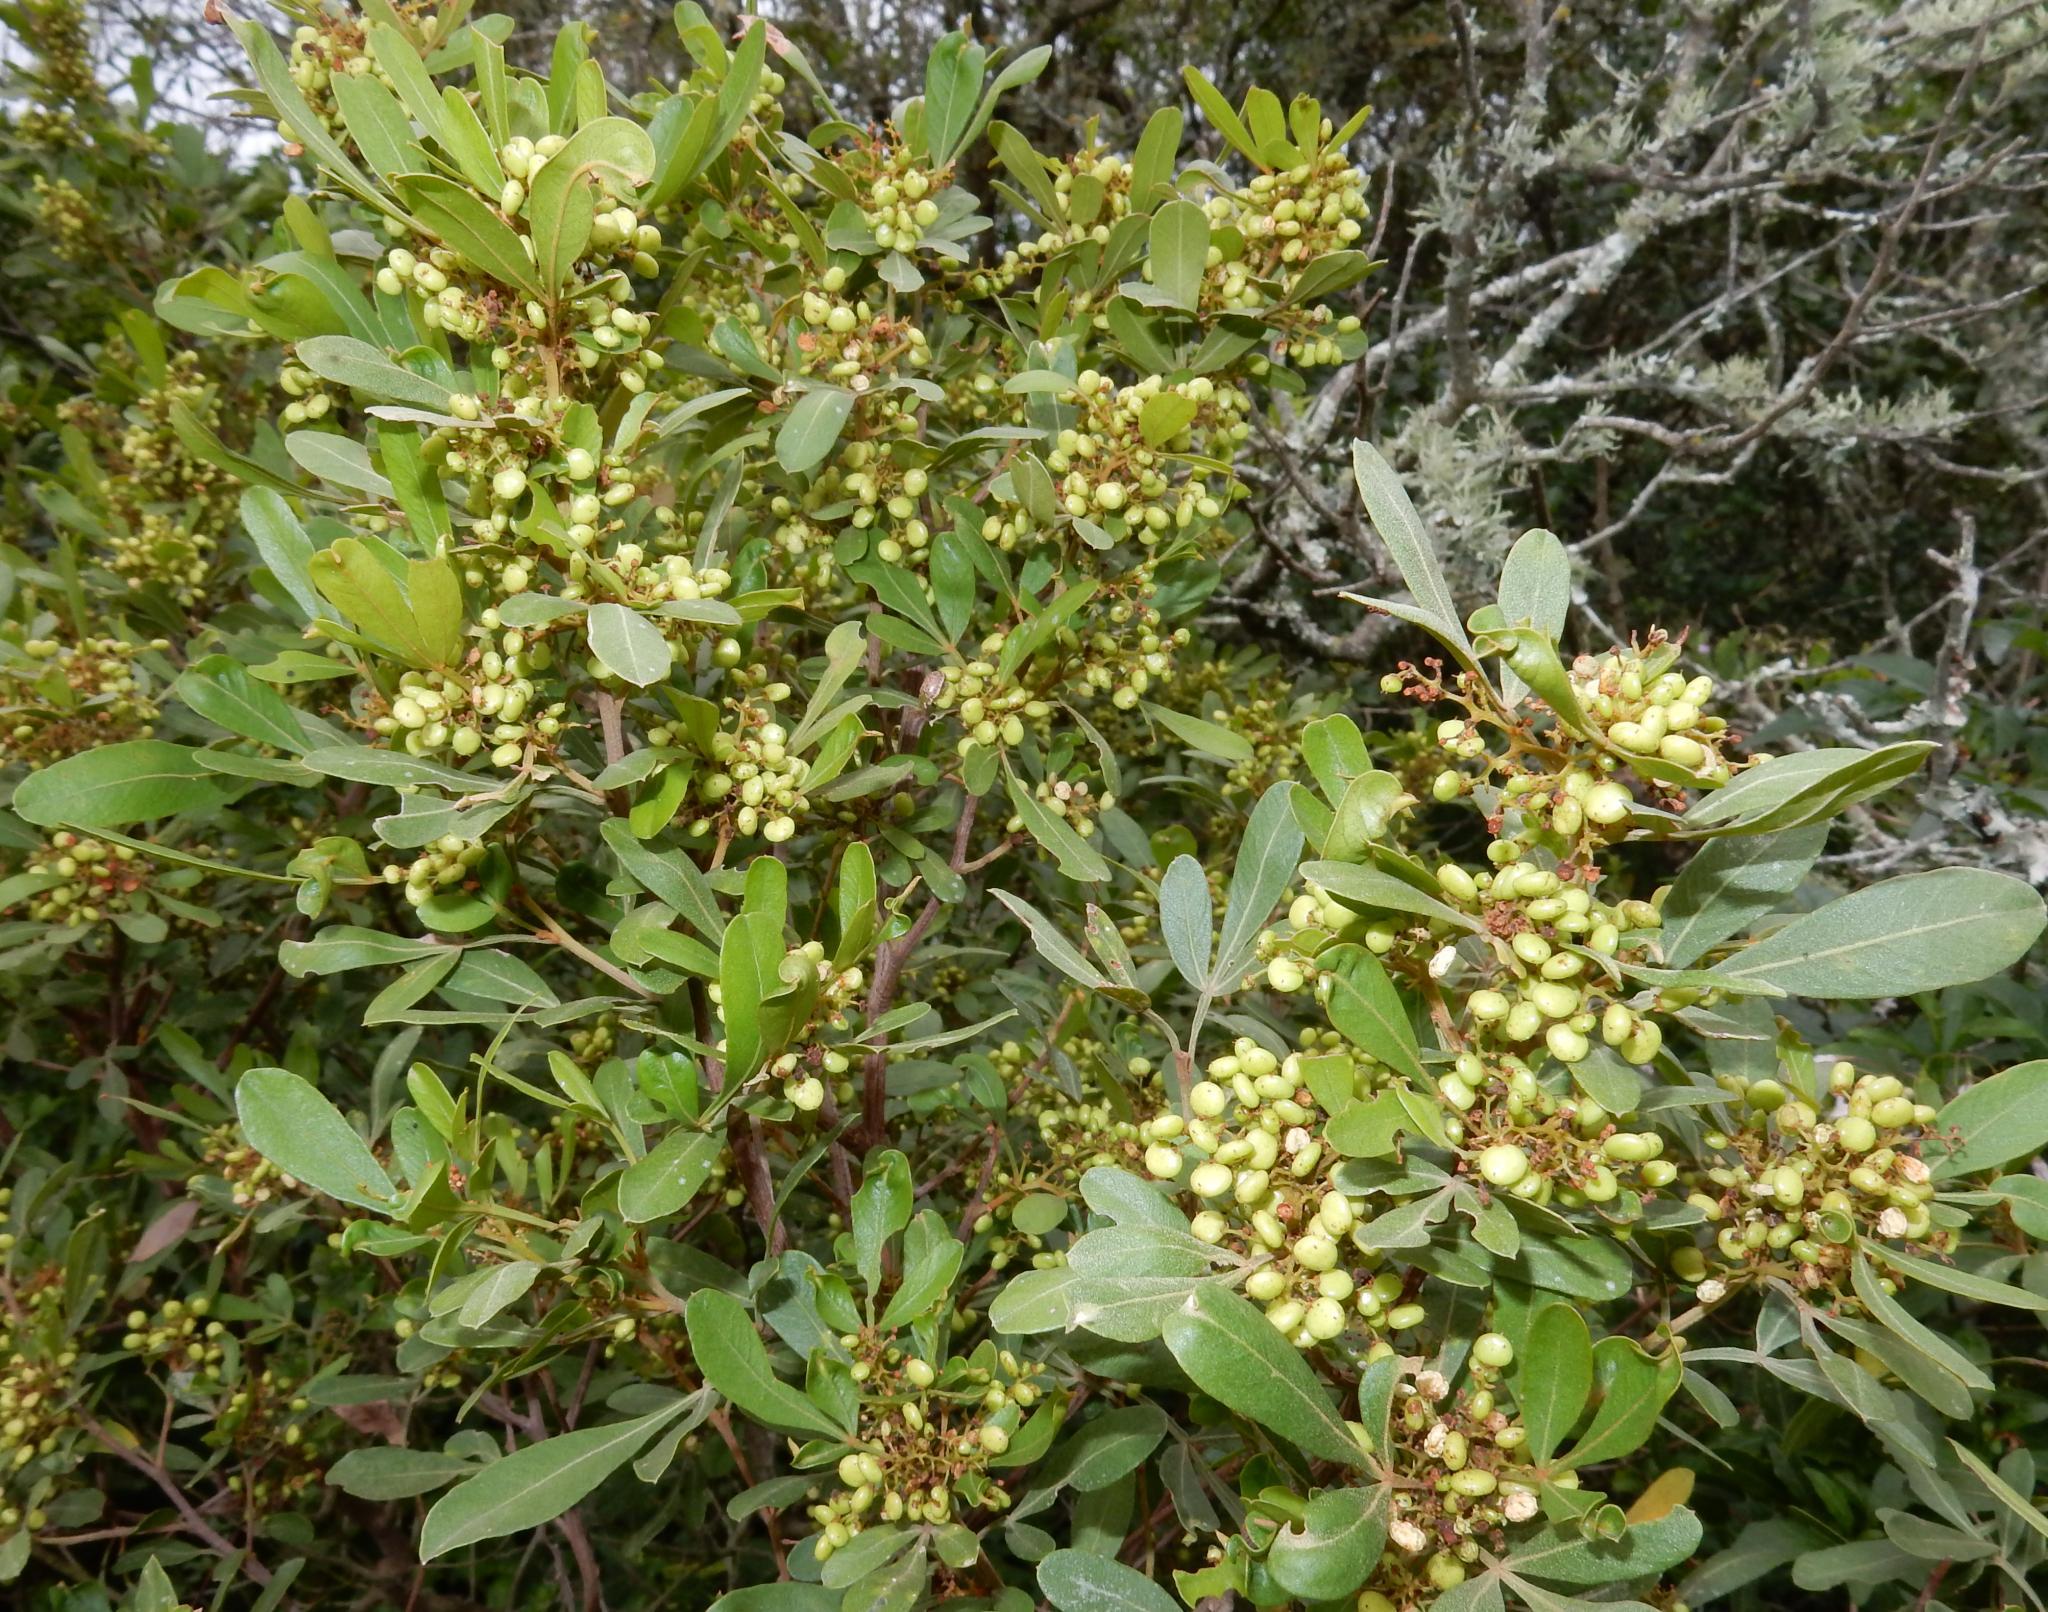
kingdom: Plantae
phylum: Tracheophyta
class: Magnoliopsida
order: Sapindales
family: Anacardiaceae
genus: Searsia
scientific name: Searsia pallens
